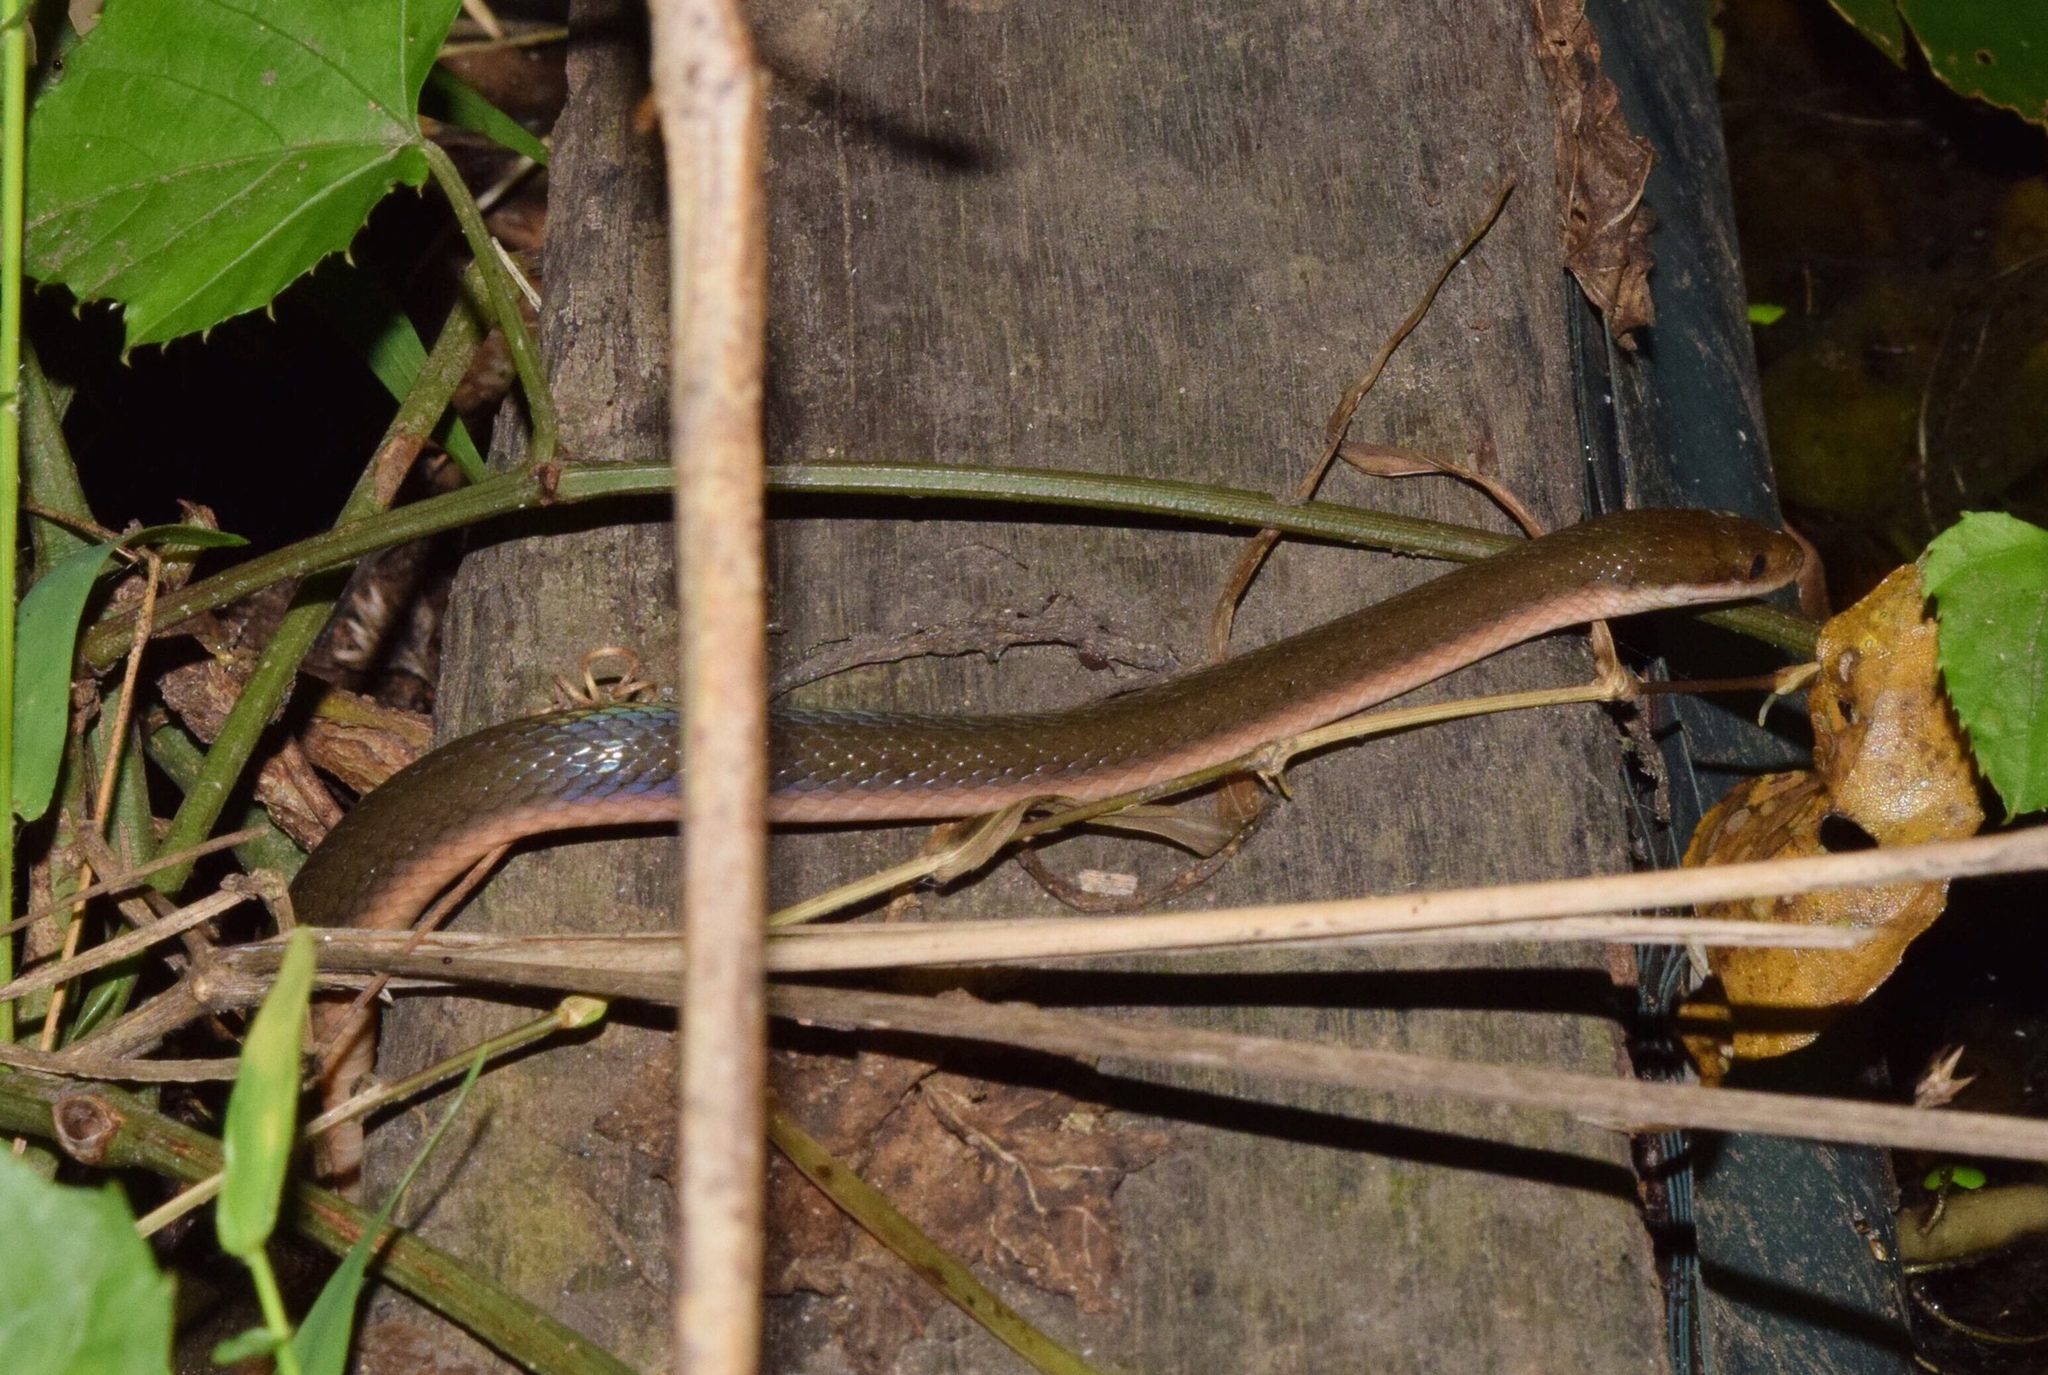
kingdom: Animalia
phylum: Chordata
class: Squamata
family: Lamprophiidae
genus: Lycodonomorphus
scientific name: Lycodonomorphus rufulus
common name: Brown water snake
